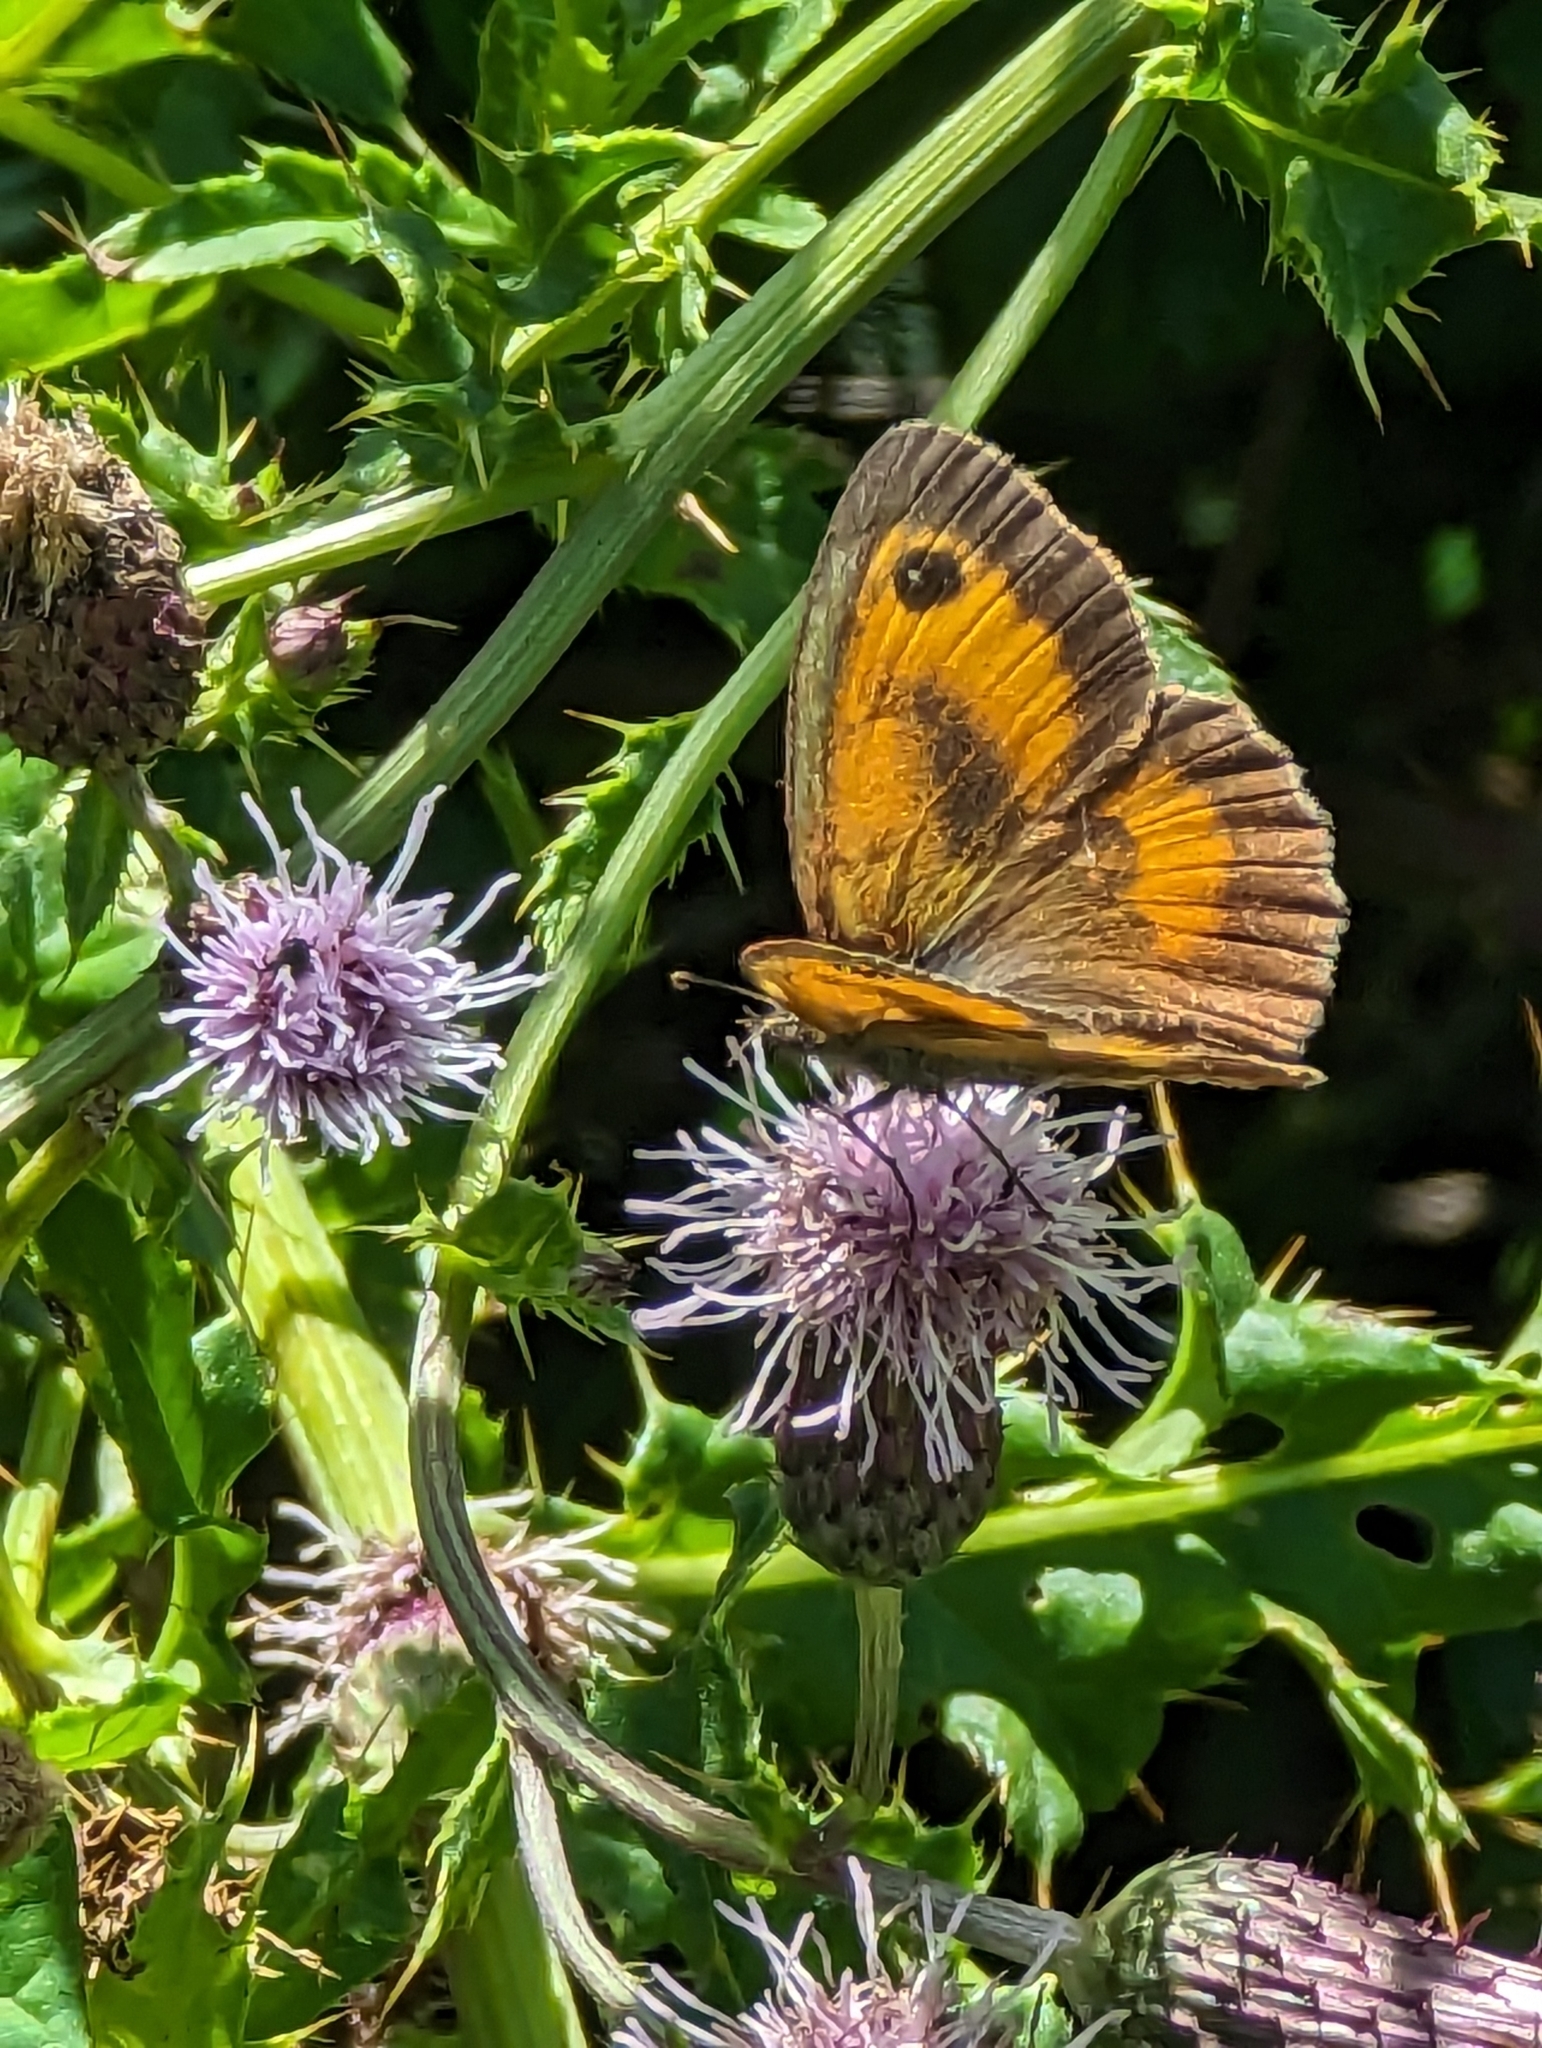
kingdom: Animalia
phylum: Arthropoda
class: Insecta
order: Lepidoptera
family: Nymphalidae
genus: Pyronia
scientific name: Pyronia tithonus
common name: Gatekeeper
